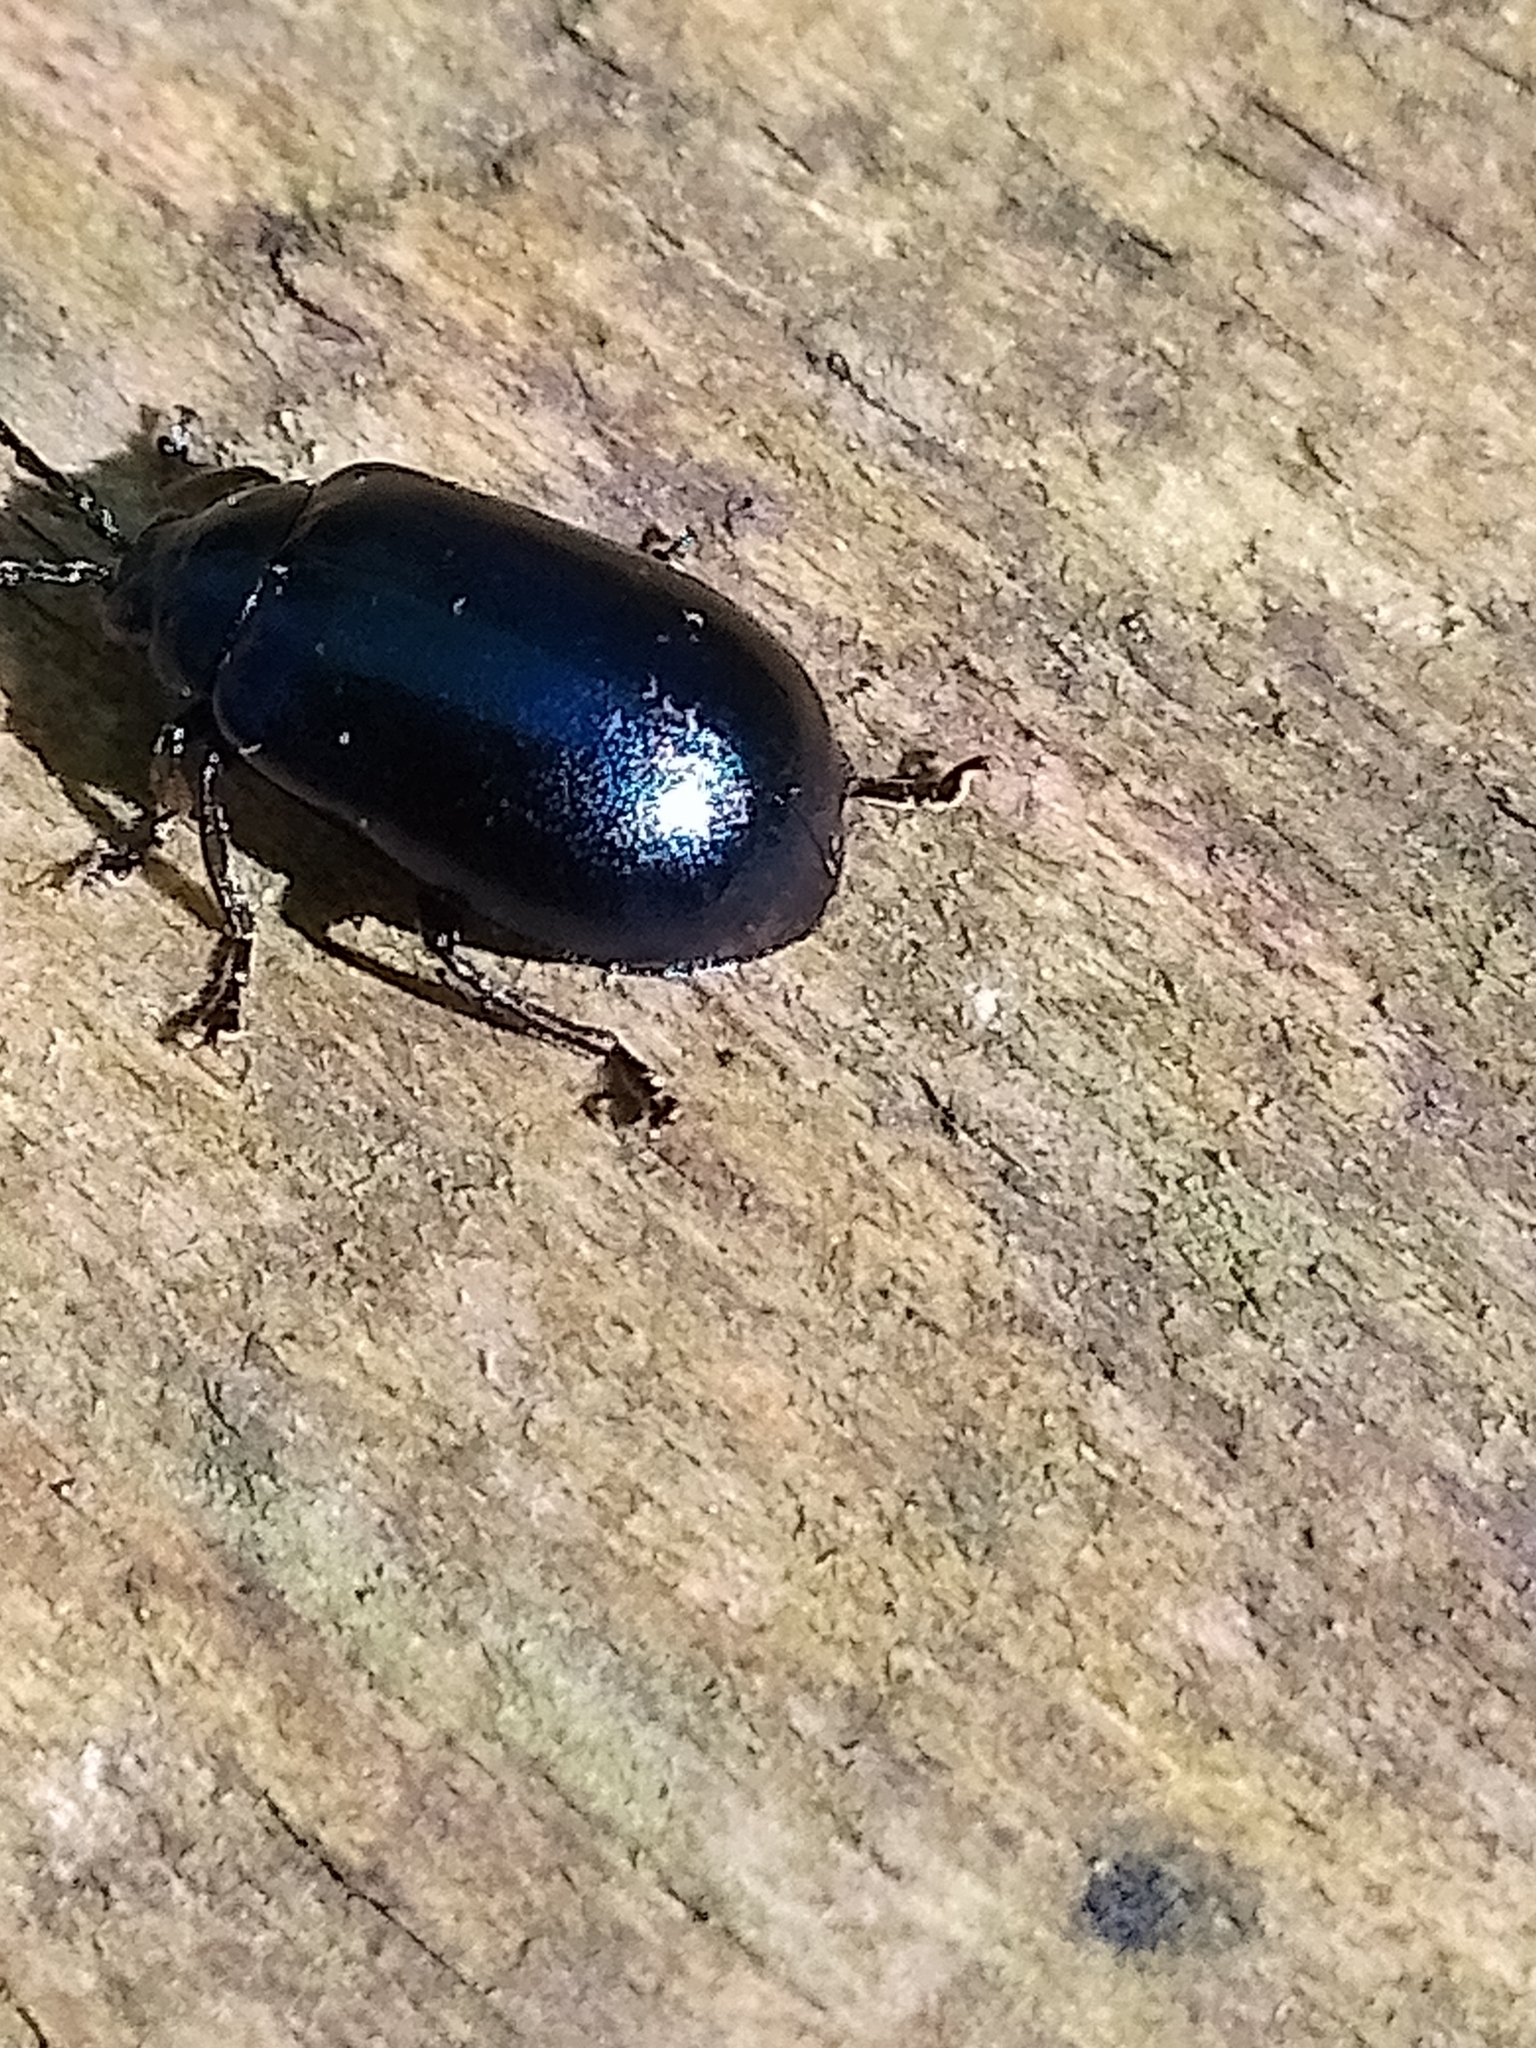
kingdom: Animalia
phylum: Arthropoda
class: Insecta
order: Coleoptera
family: Chrysomelidae
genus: Agelastica
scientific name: Agelastica alni
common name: Alder leaf beetle
